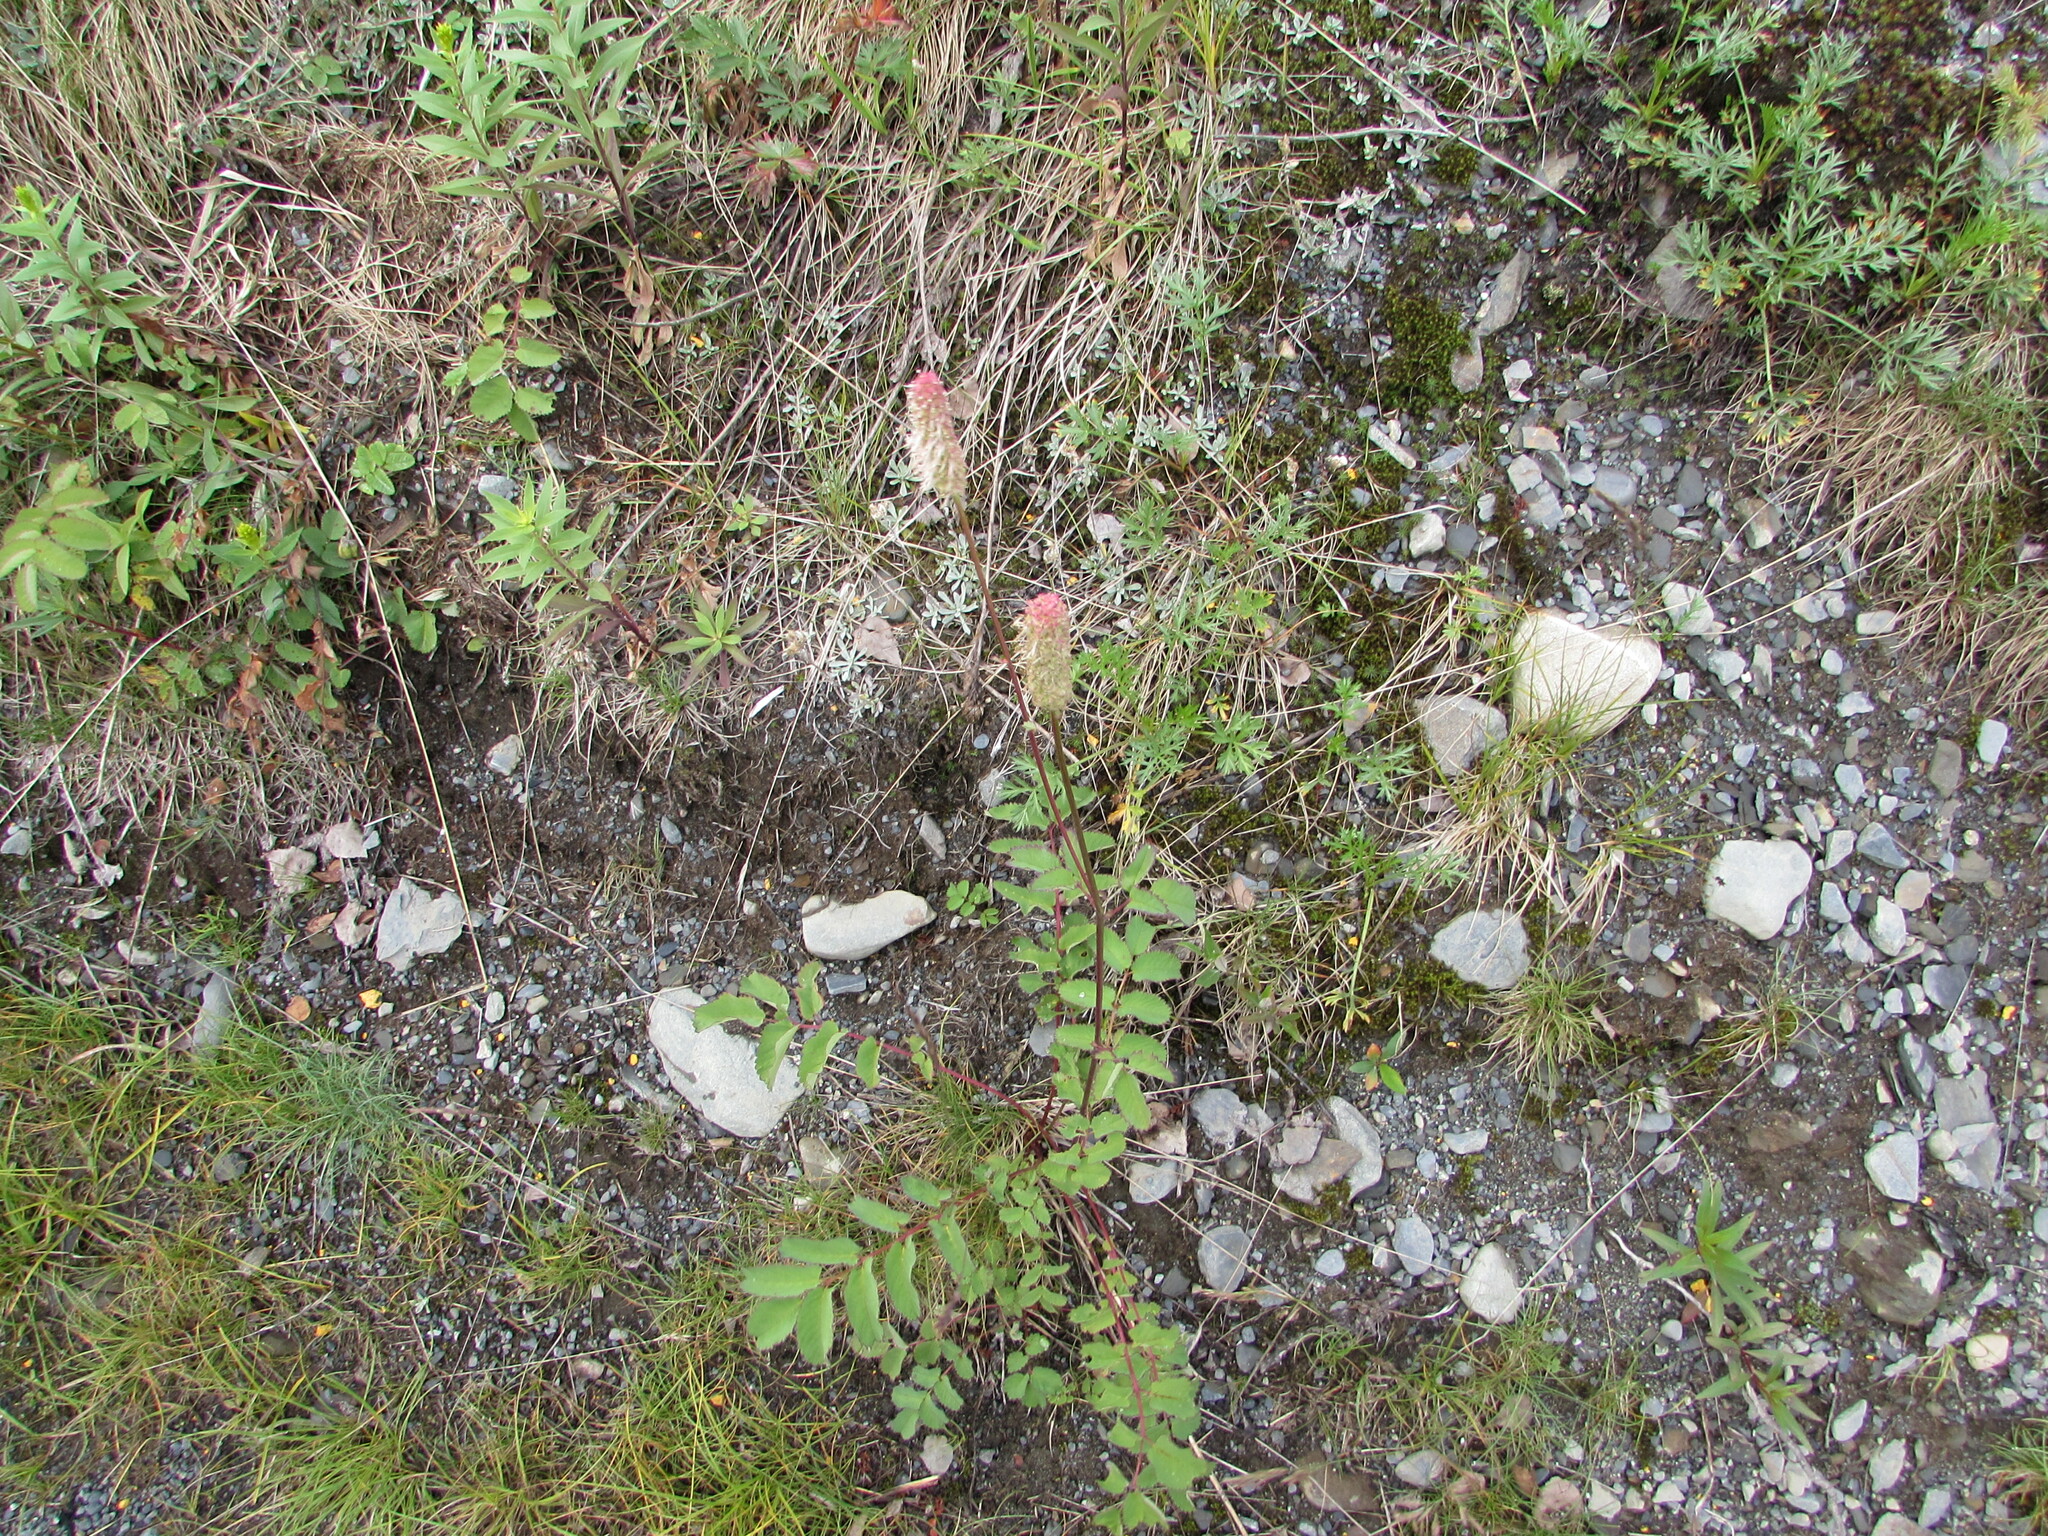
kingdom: Plantae
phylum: Tracheophyta
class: Magnoliopsida
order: Rosales
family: Rosaceae
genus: Sanguisorba
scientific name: Sanguisorba stipulata
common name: Sitka burnet
